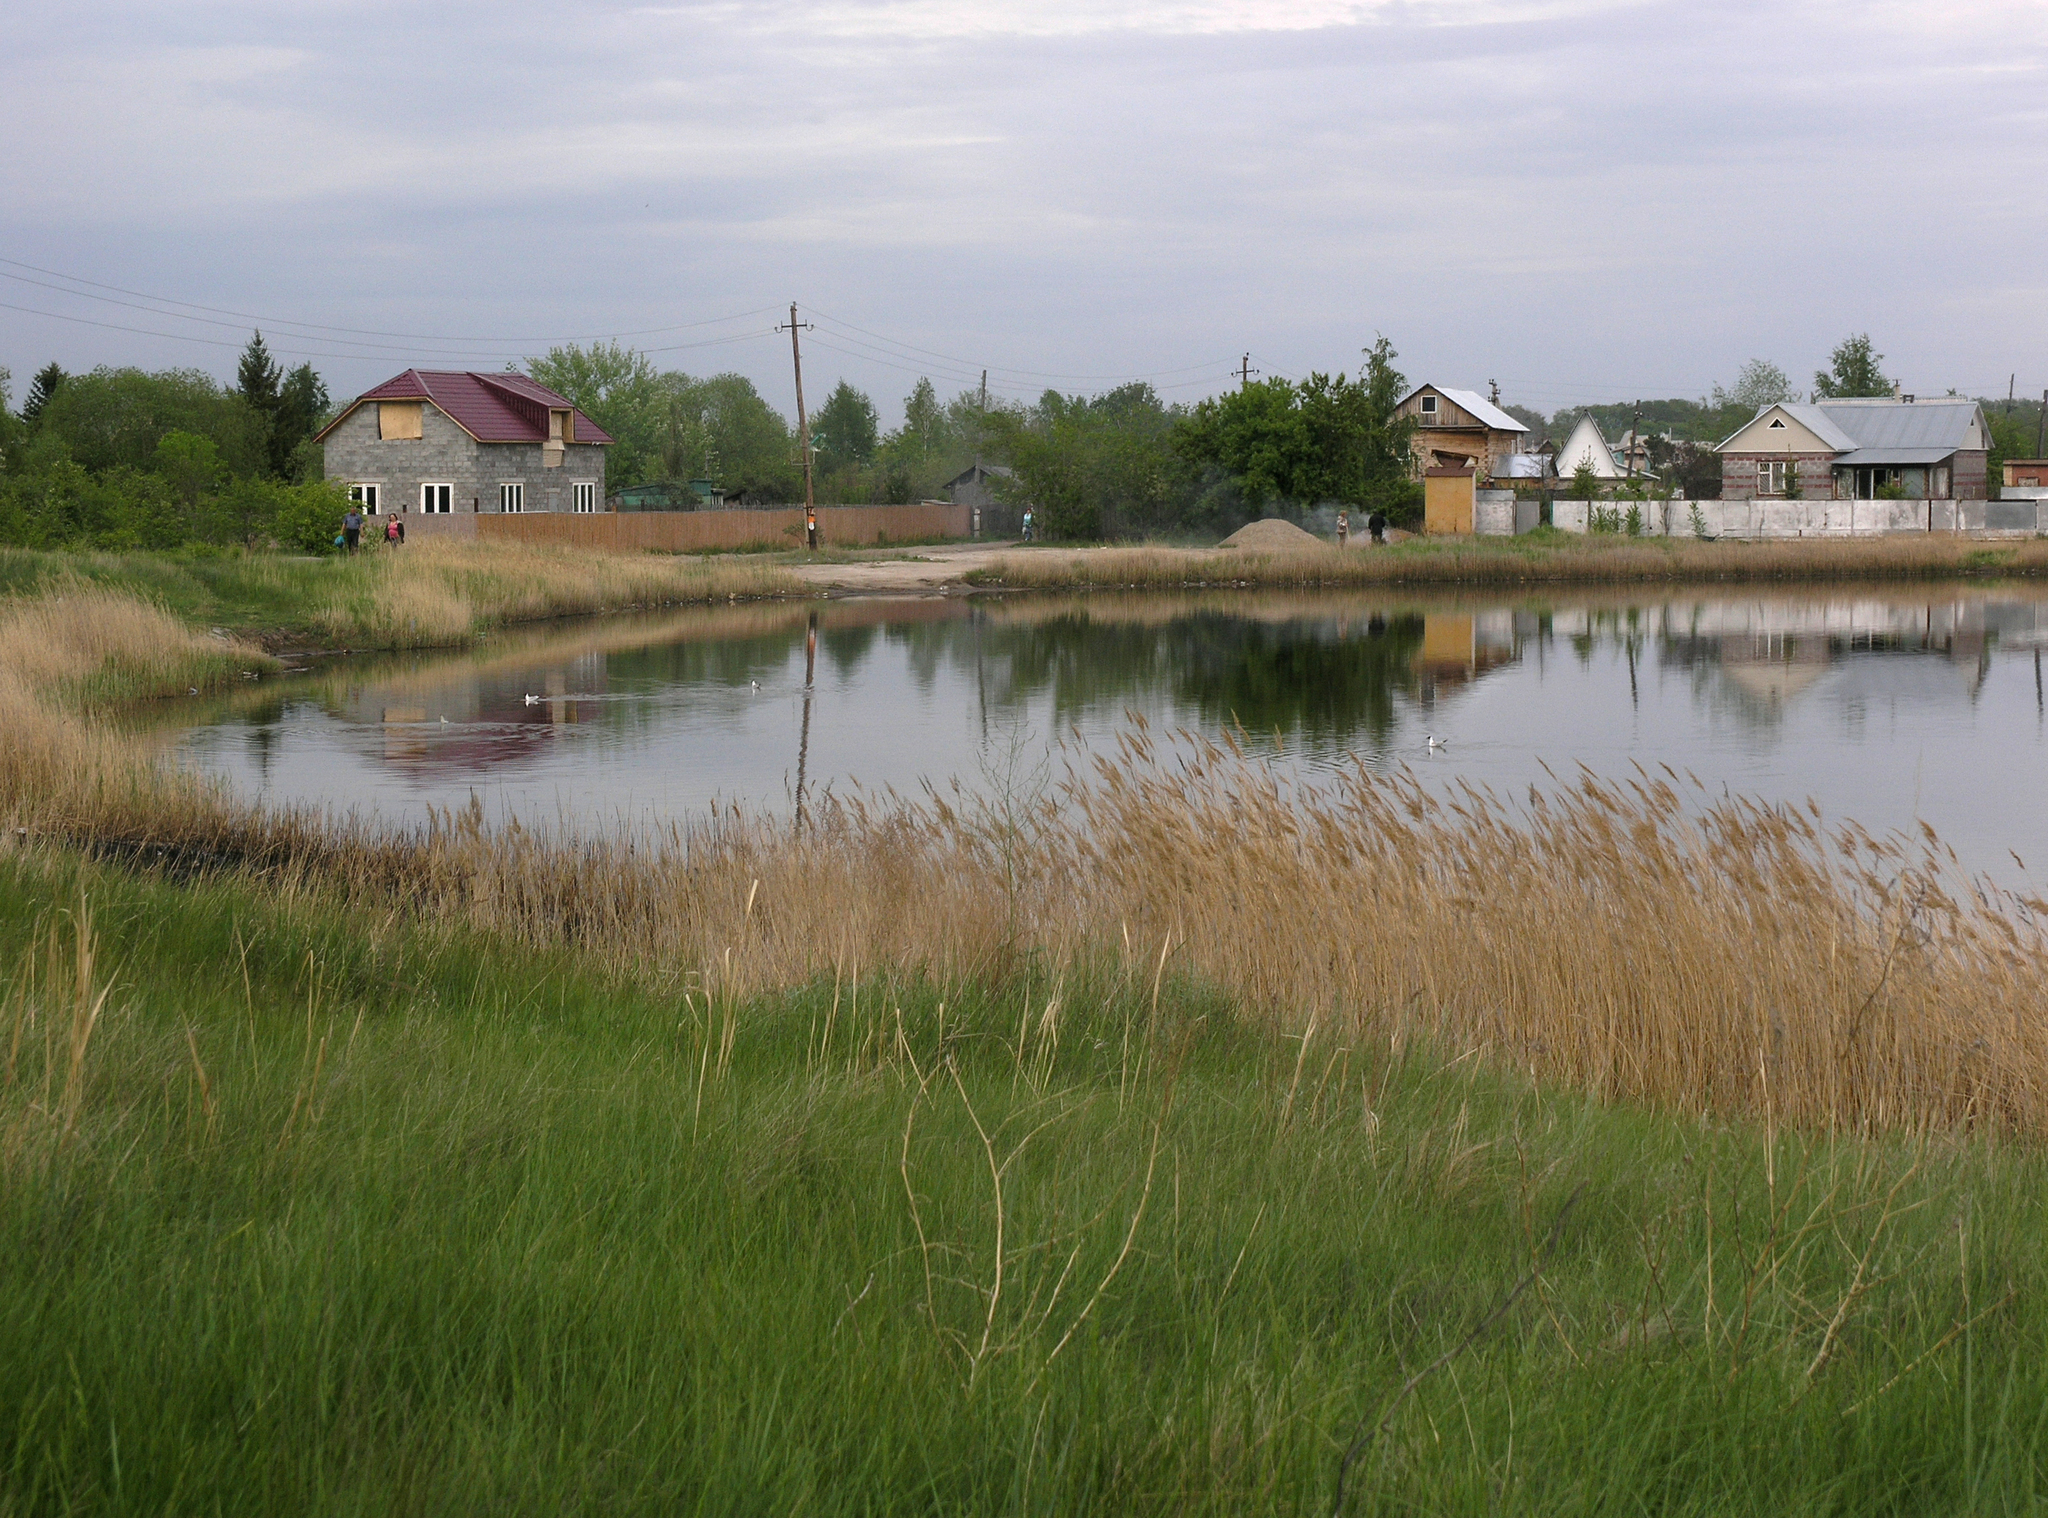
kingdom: Plantae
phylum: Tracheophyta
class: Liliopsida
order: Poales
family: Poaceae
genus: Phragmites
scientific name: Phragmites australis
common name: Common reed
